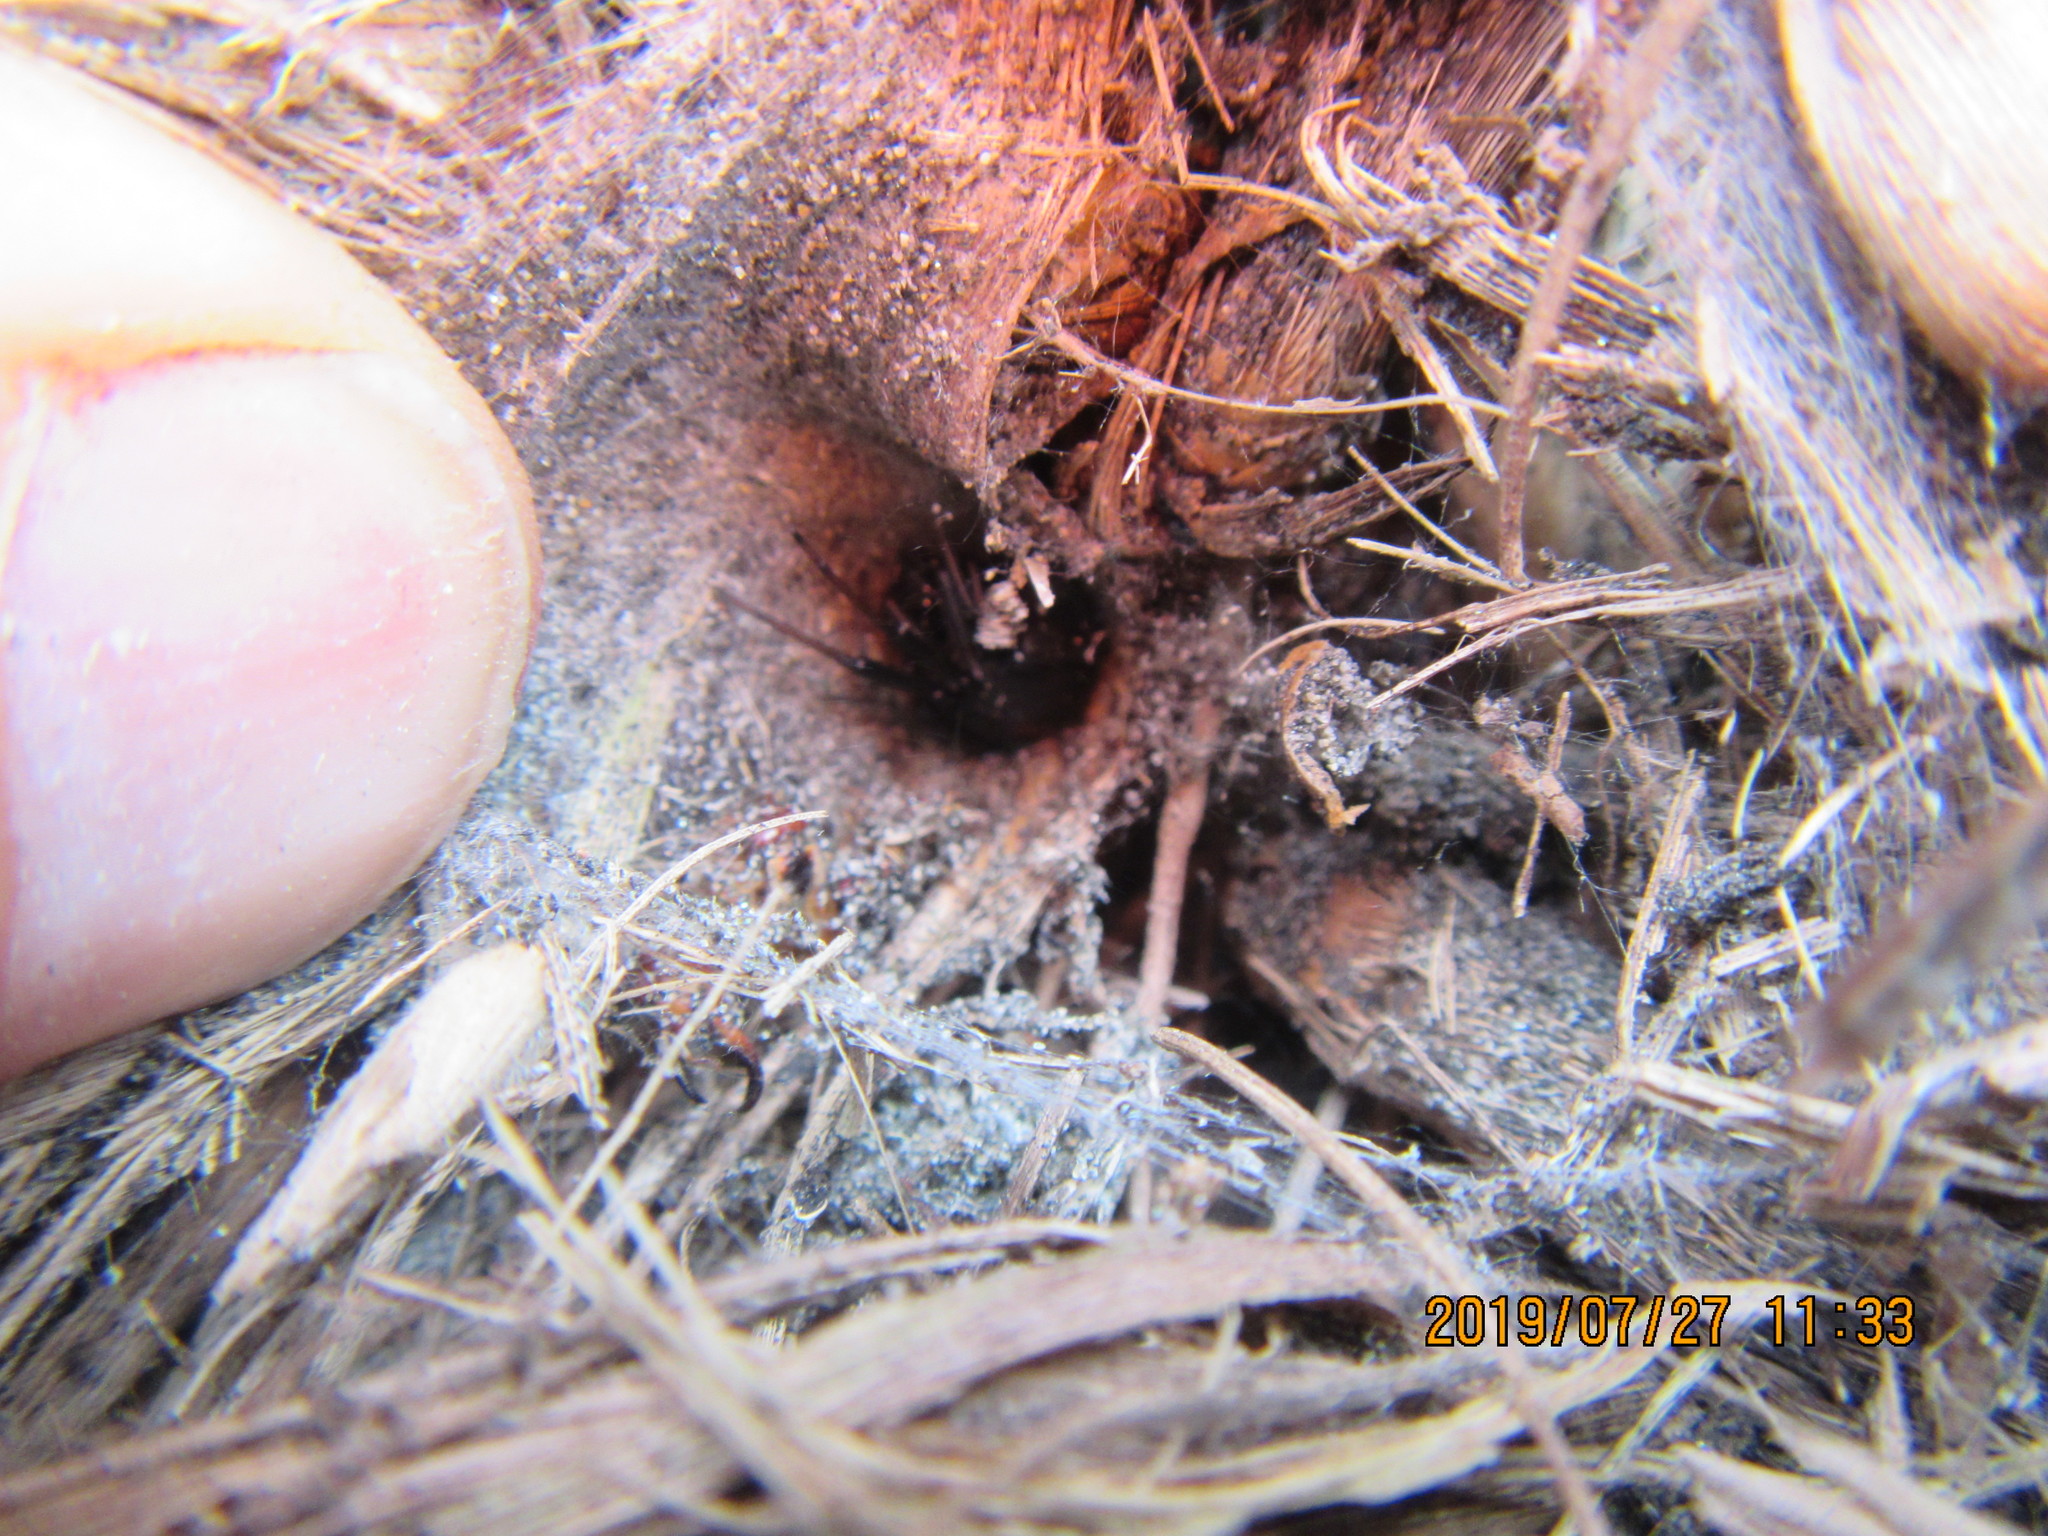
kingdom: Animalia
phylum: Arthropoda
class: Arachnida
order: Araneae
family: Theridiidae
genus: Latrodectus
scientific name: Latrodectus katipo
